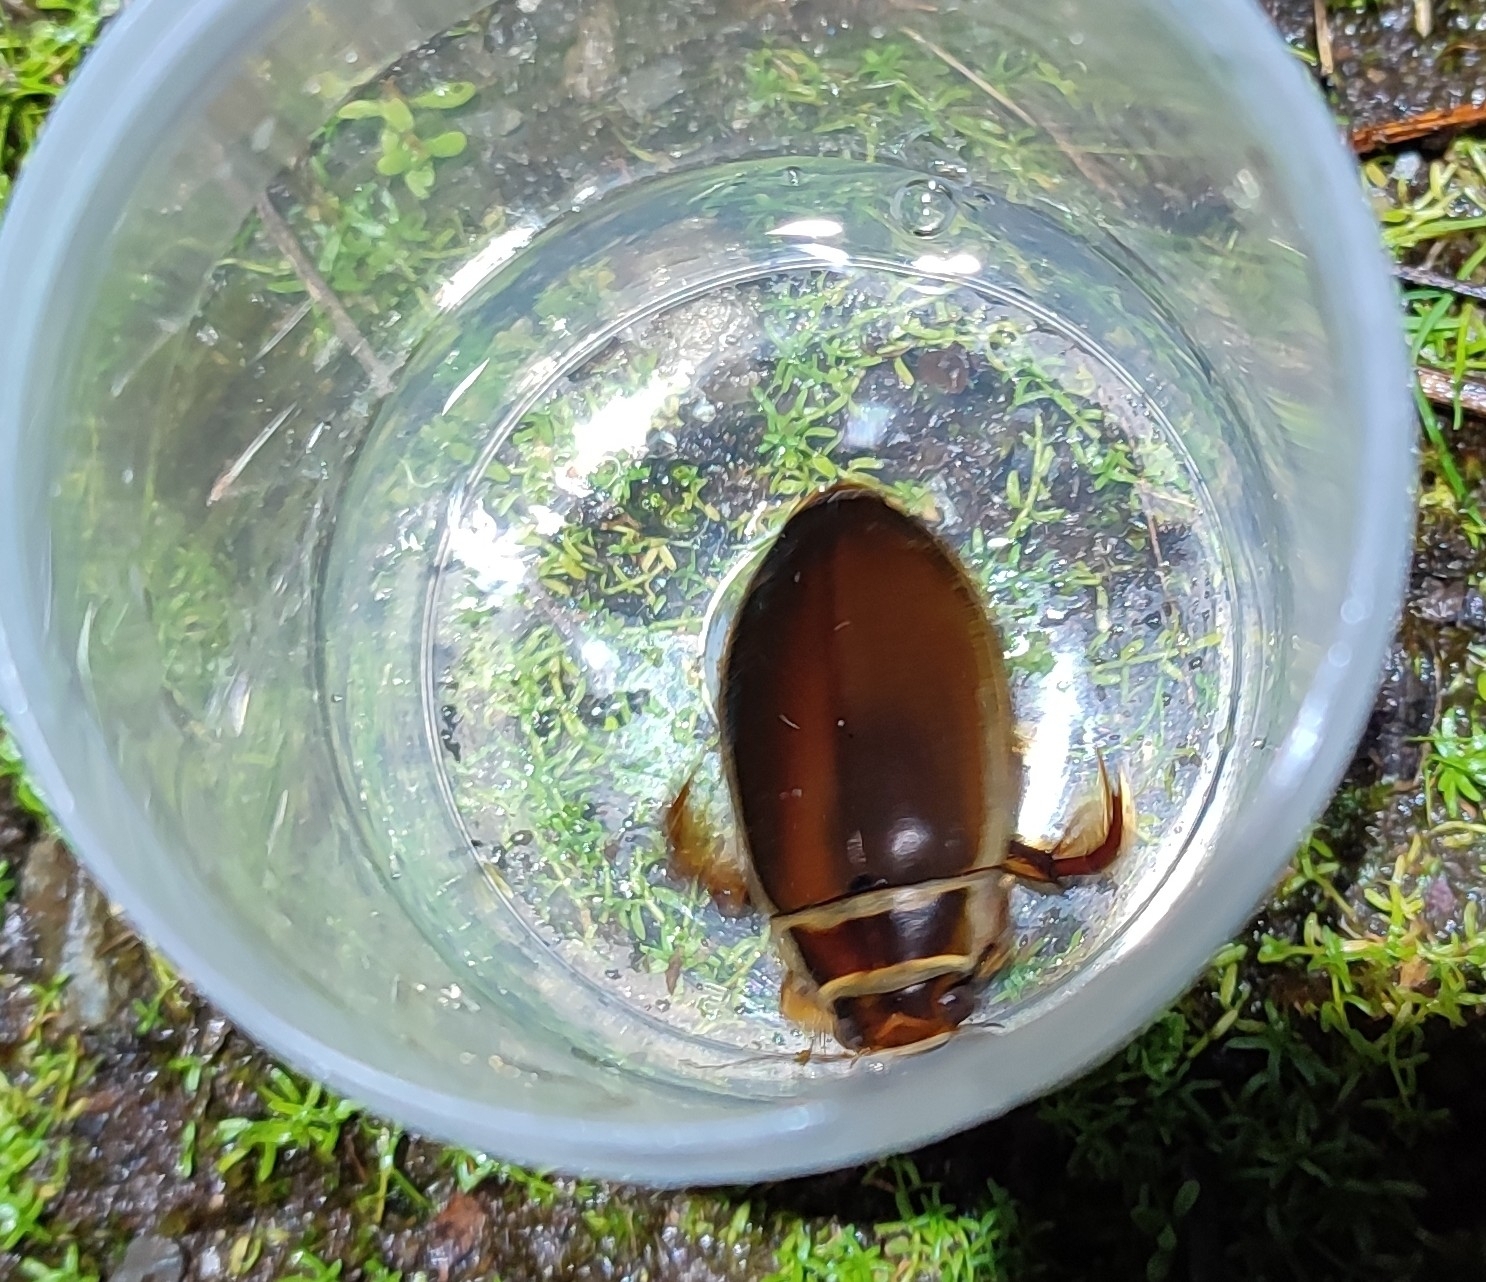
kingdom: Animalia
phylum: Arthropoda
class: Insecta
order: Coleoptera
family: Dytiscidae
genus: Dytiscus
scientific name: Dytiscus marginalis
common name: Great water beetle
